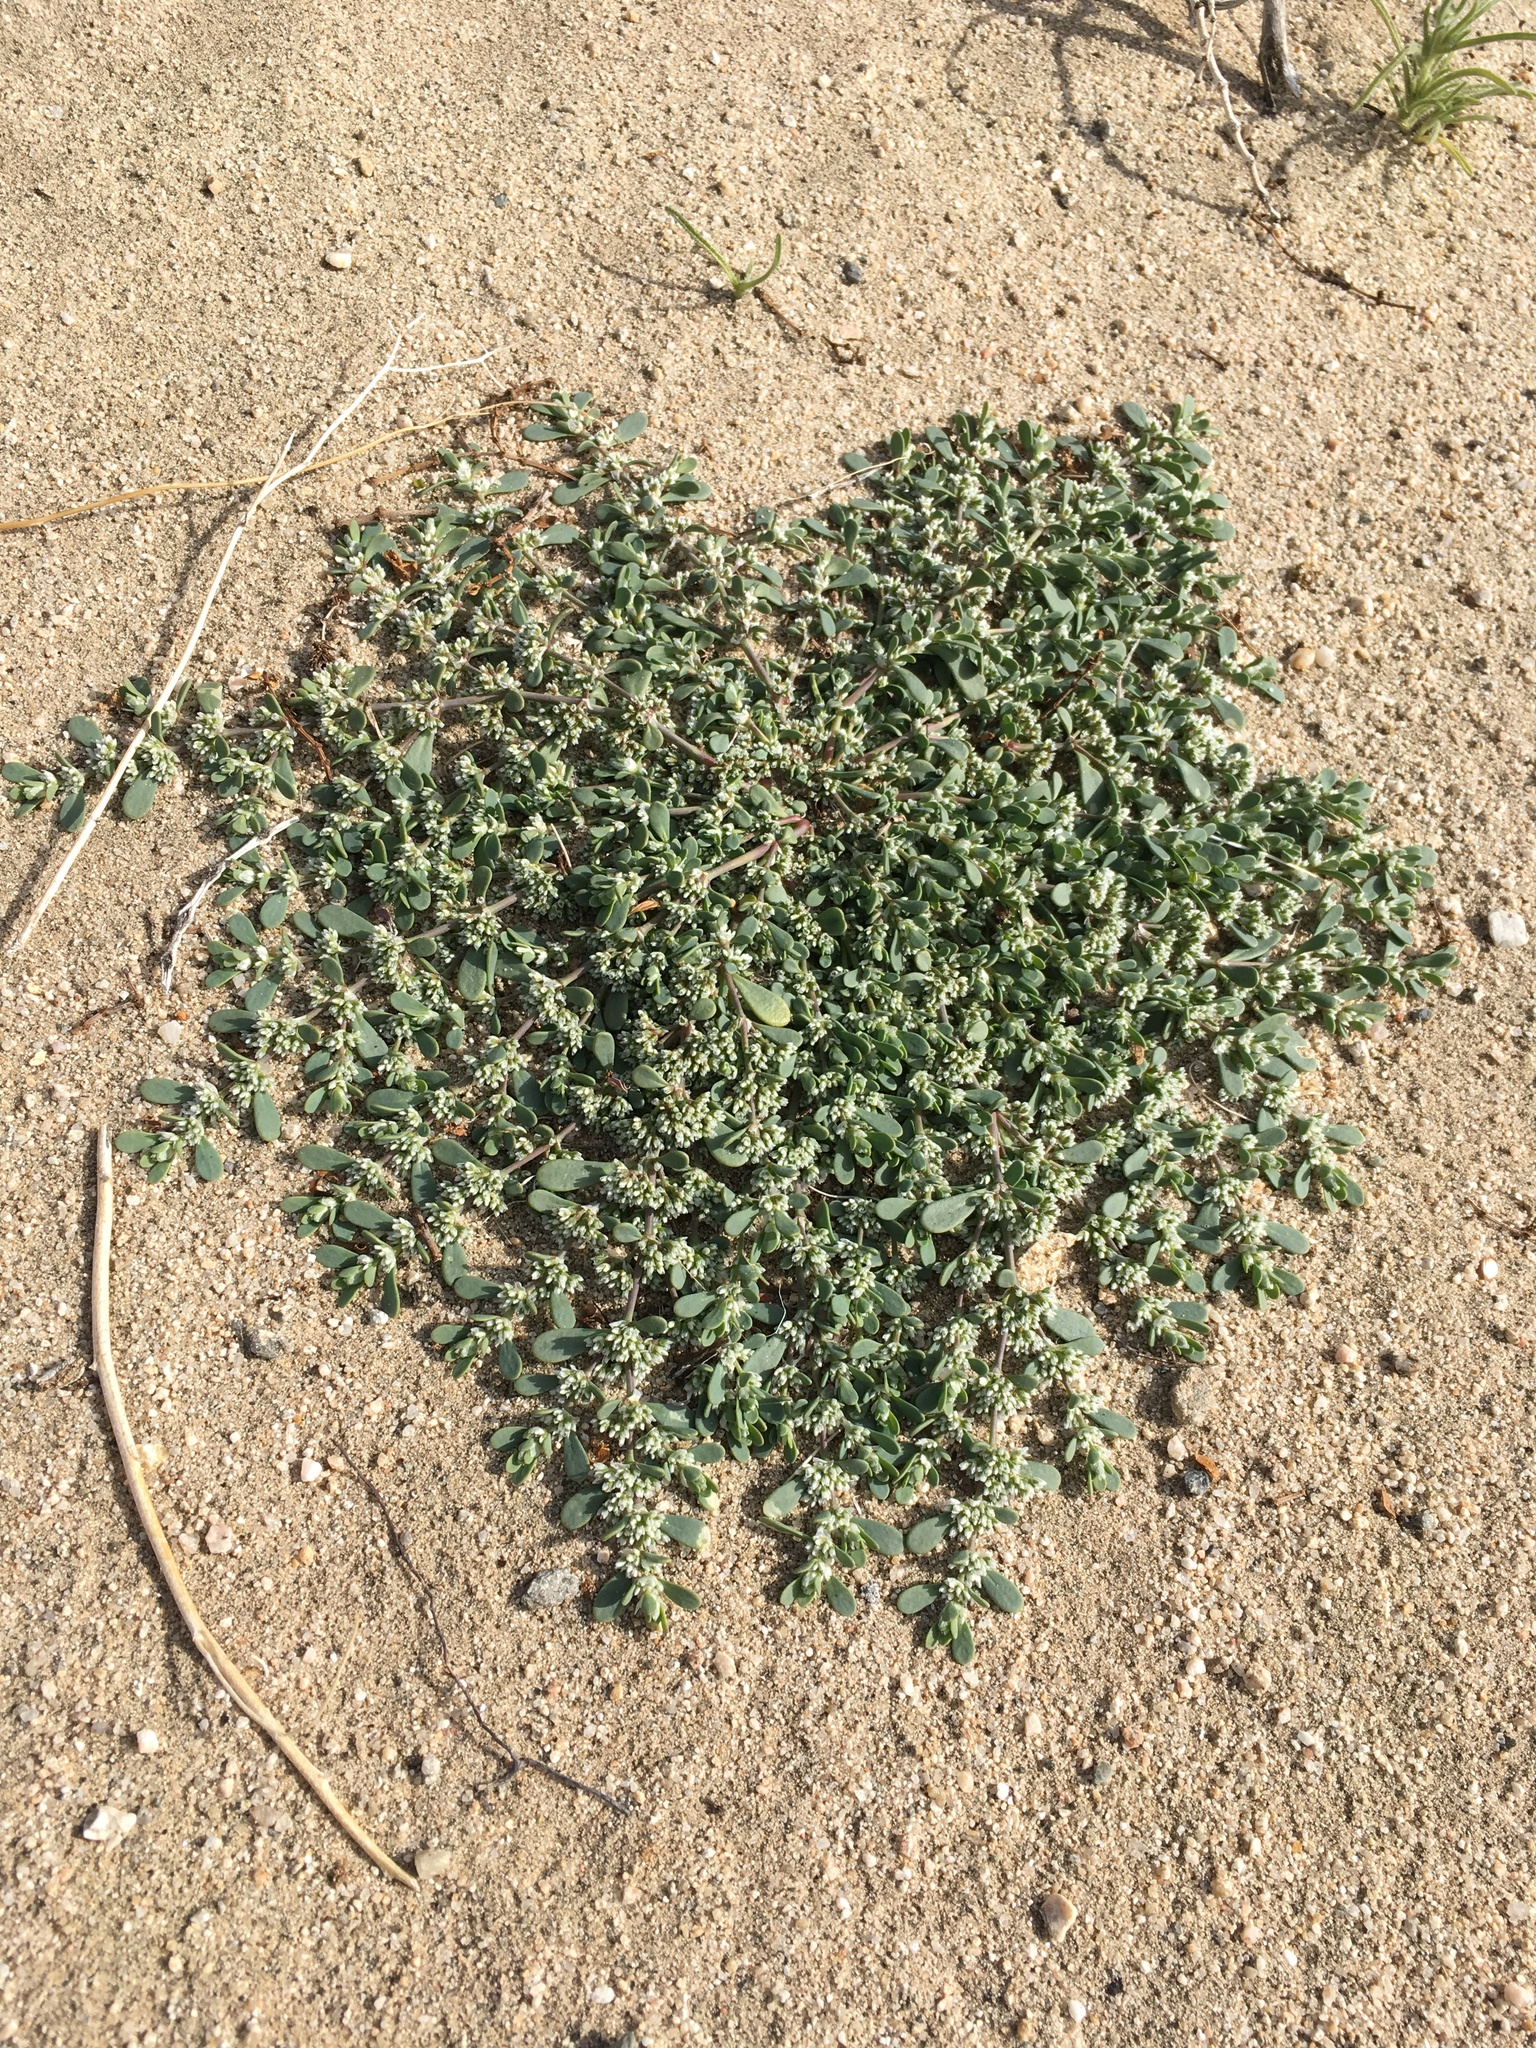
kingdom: Plantae
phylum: Tracheophyta
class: Magnoliopsida
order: Caryophyllales
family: Caryophyllaceae
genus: Achyronychia
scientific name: Achyronychia cooperi
